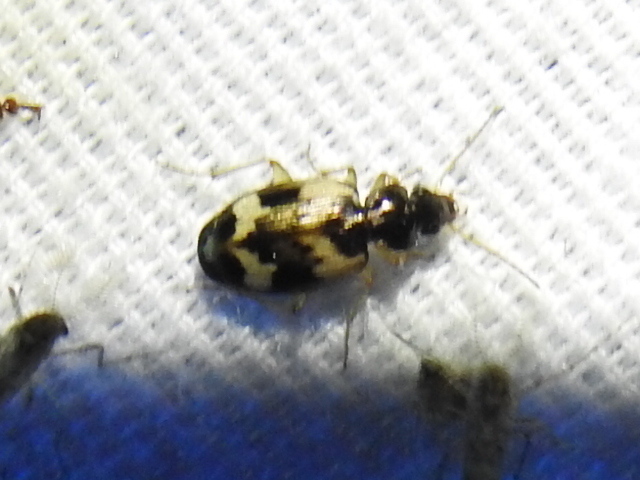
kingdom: Animalia
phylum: Arthropoda
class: Insecta
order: Coleoptera
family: Carabidae
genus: Tetragonoderus
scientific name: Tetragonoderus fasciatus
